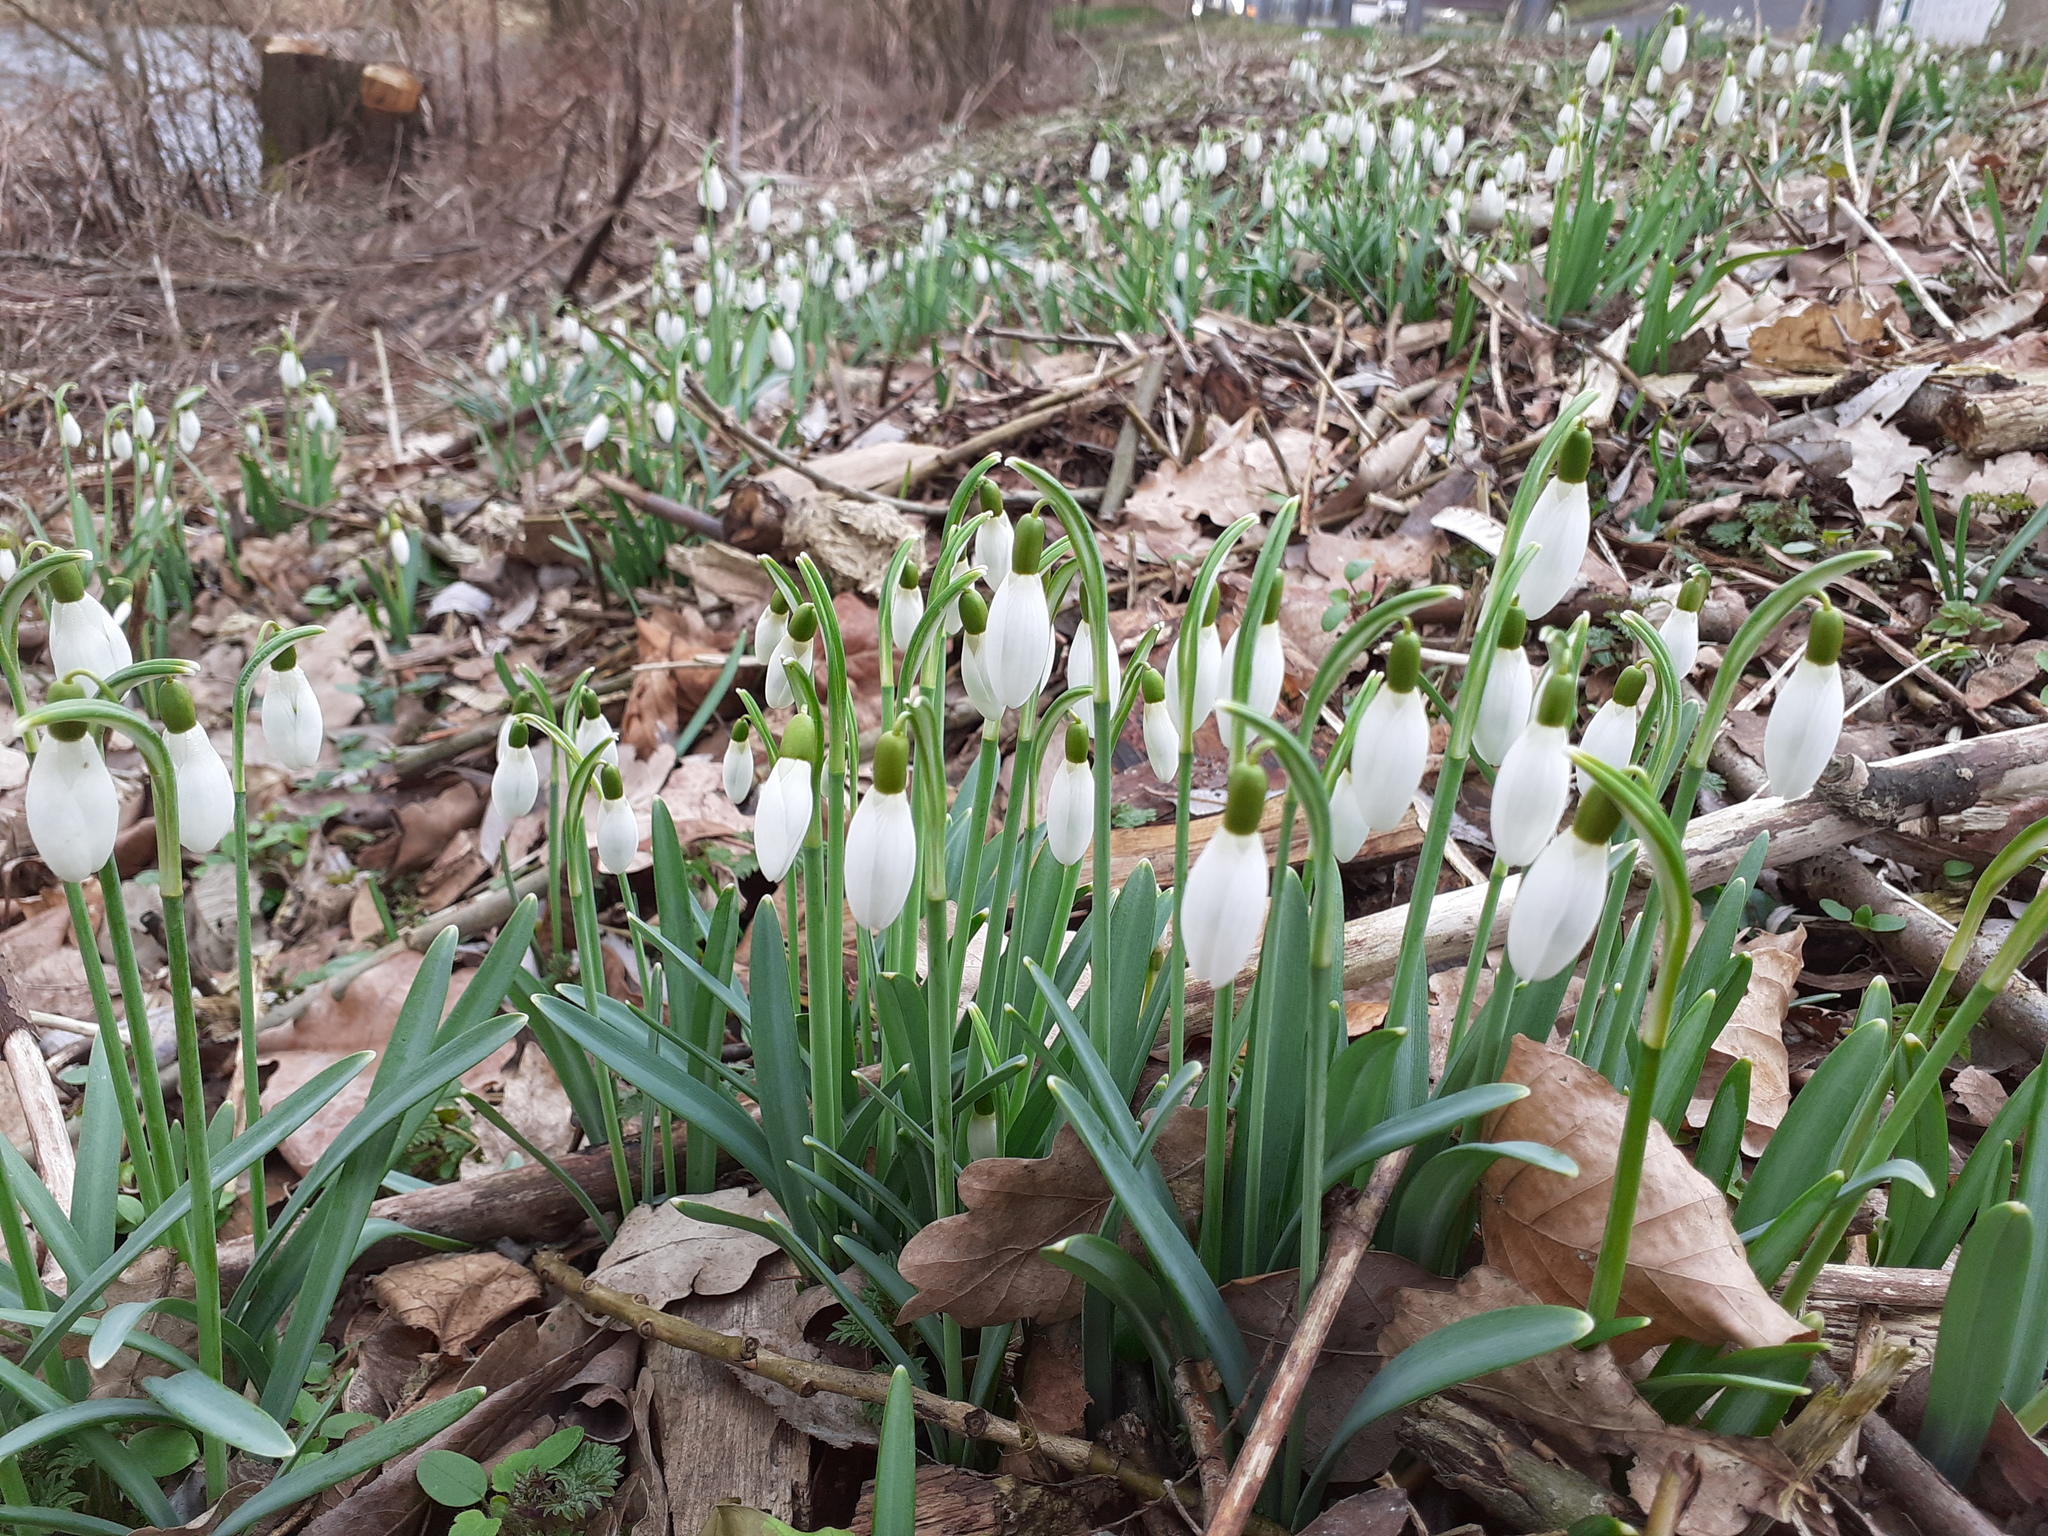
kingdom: Plantae
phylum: Tracheophyta
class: Liliopsida
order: Asparagales
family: Amaryllidaceae
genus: Galanthus
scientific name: Galanthus nivalis
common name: Snowdrop
